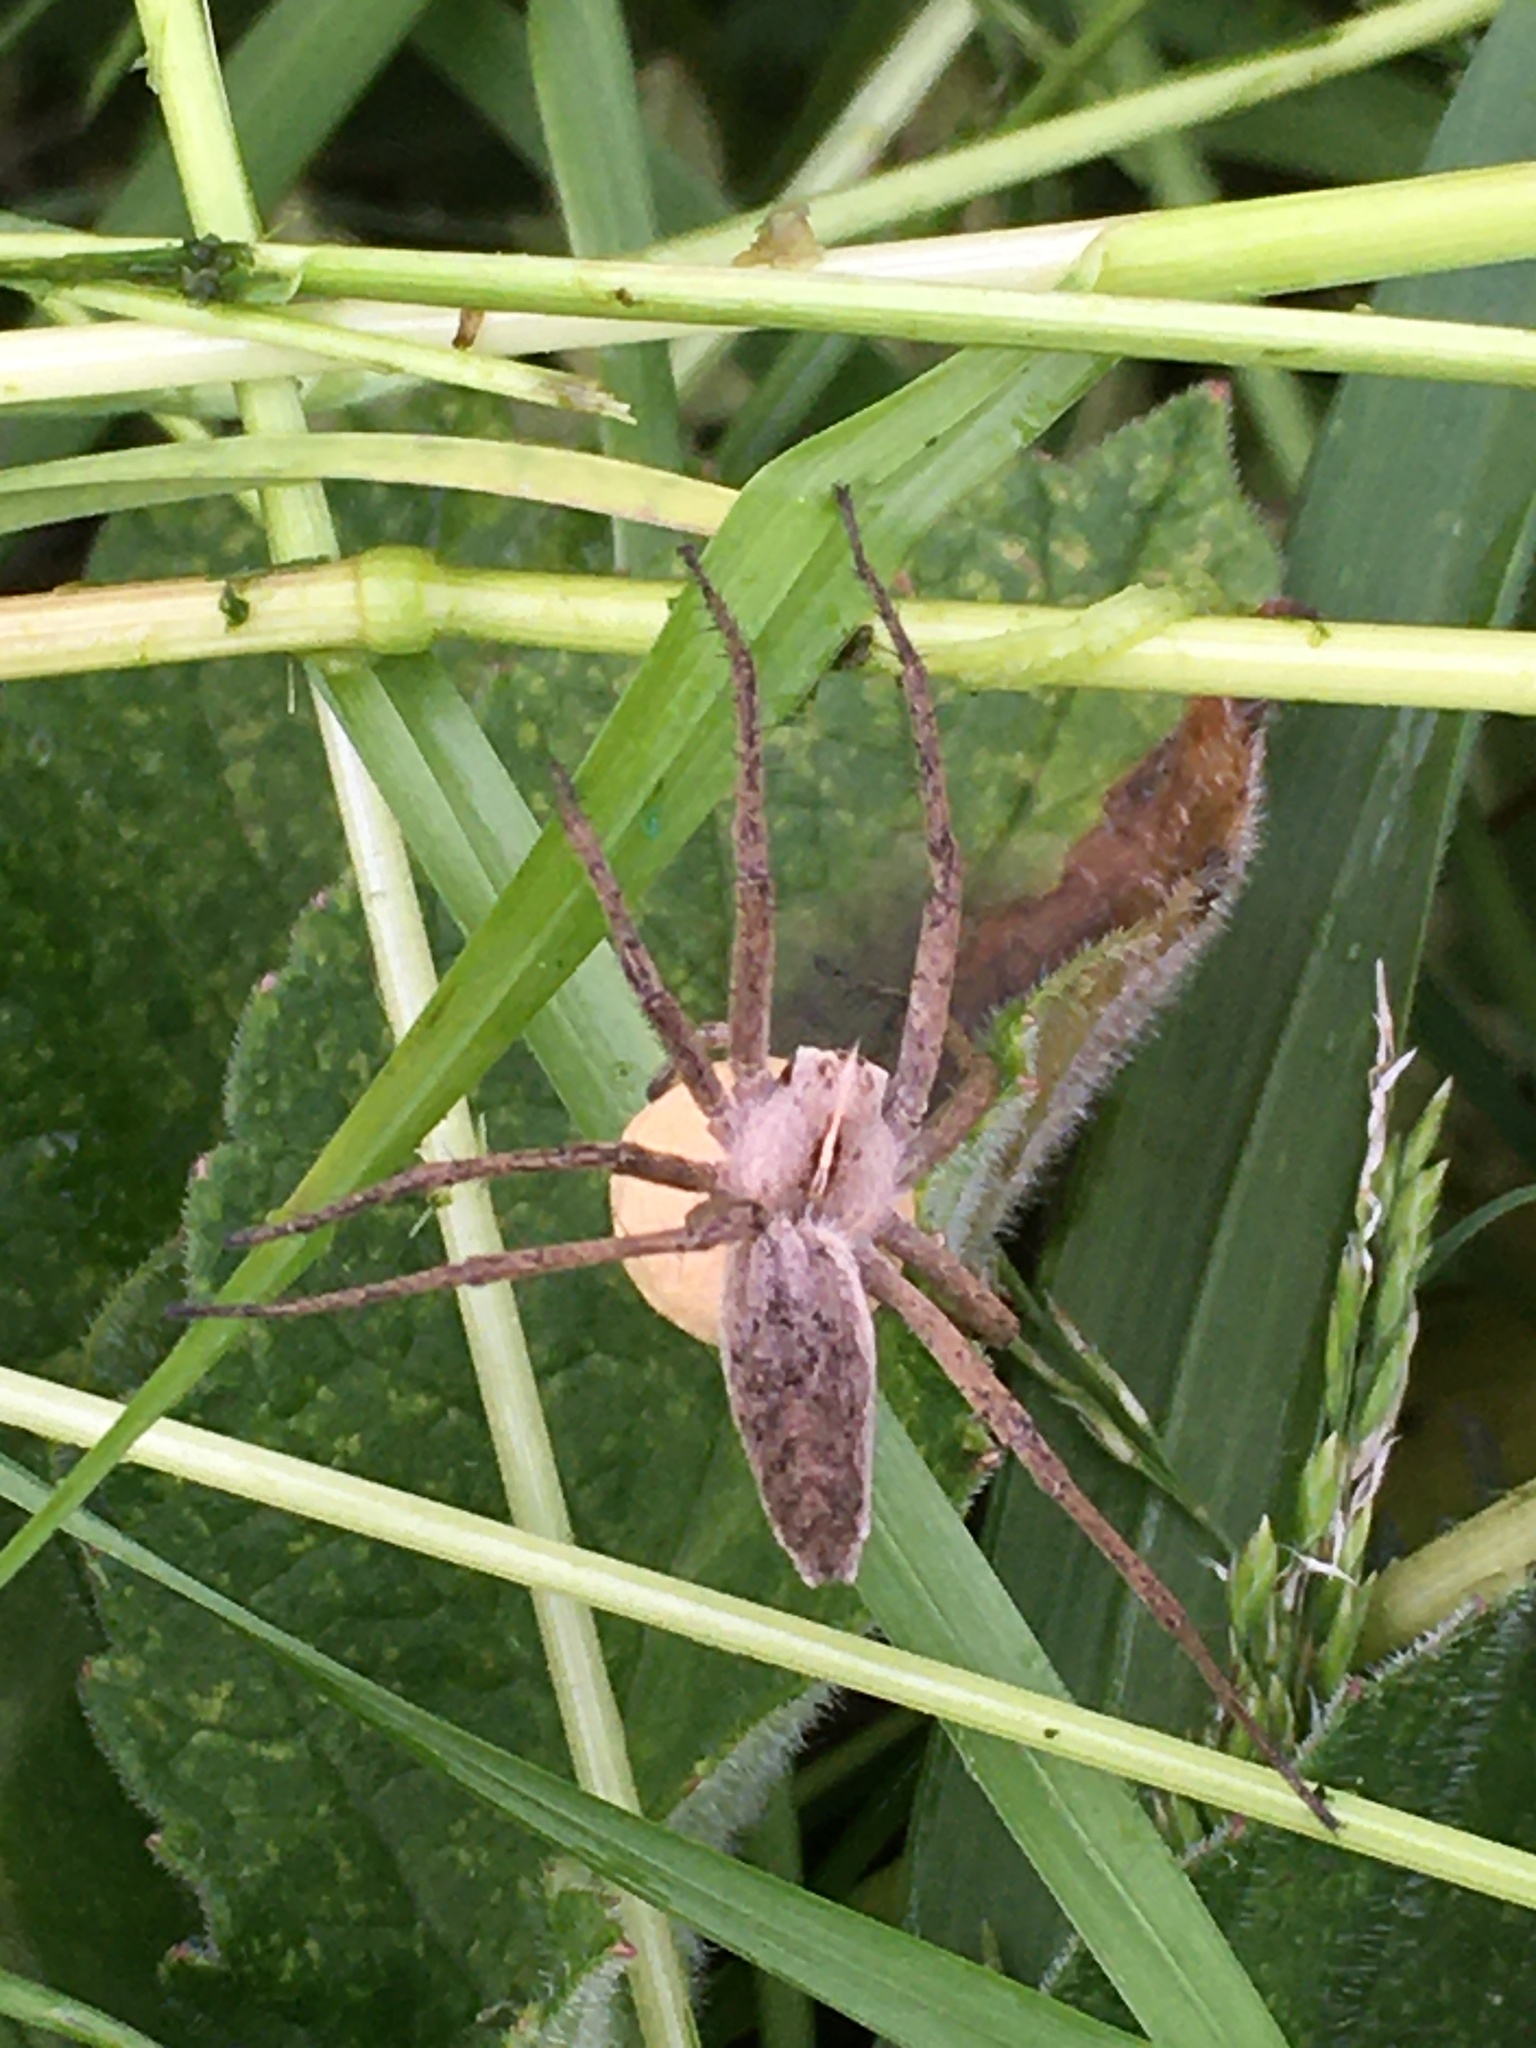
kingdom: Animalia
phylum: Arthropoda
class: Arachnida
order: Araneae
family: Pisauridae
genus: Pisaura
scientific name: Pisaura mirabilis
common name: Tent spider
